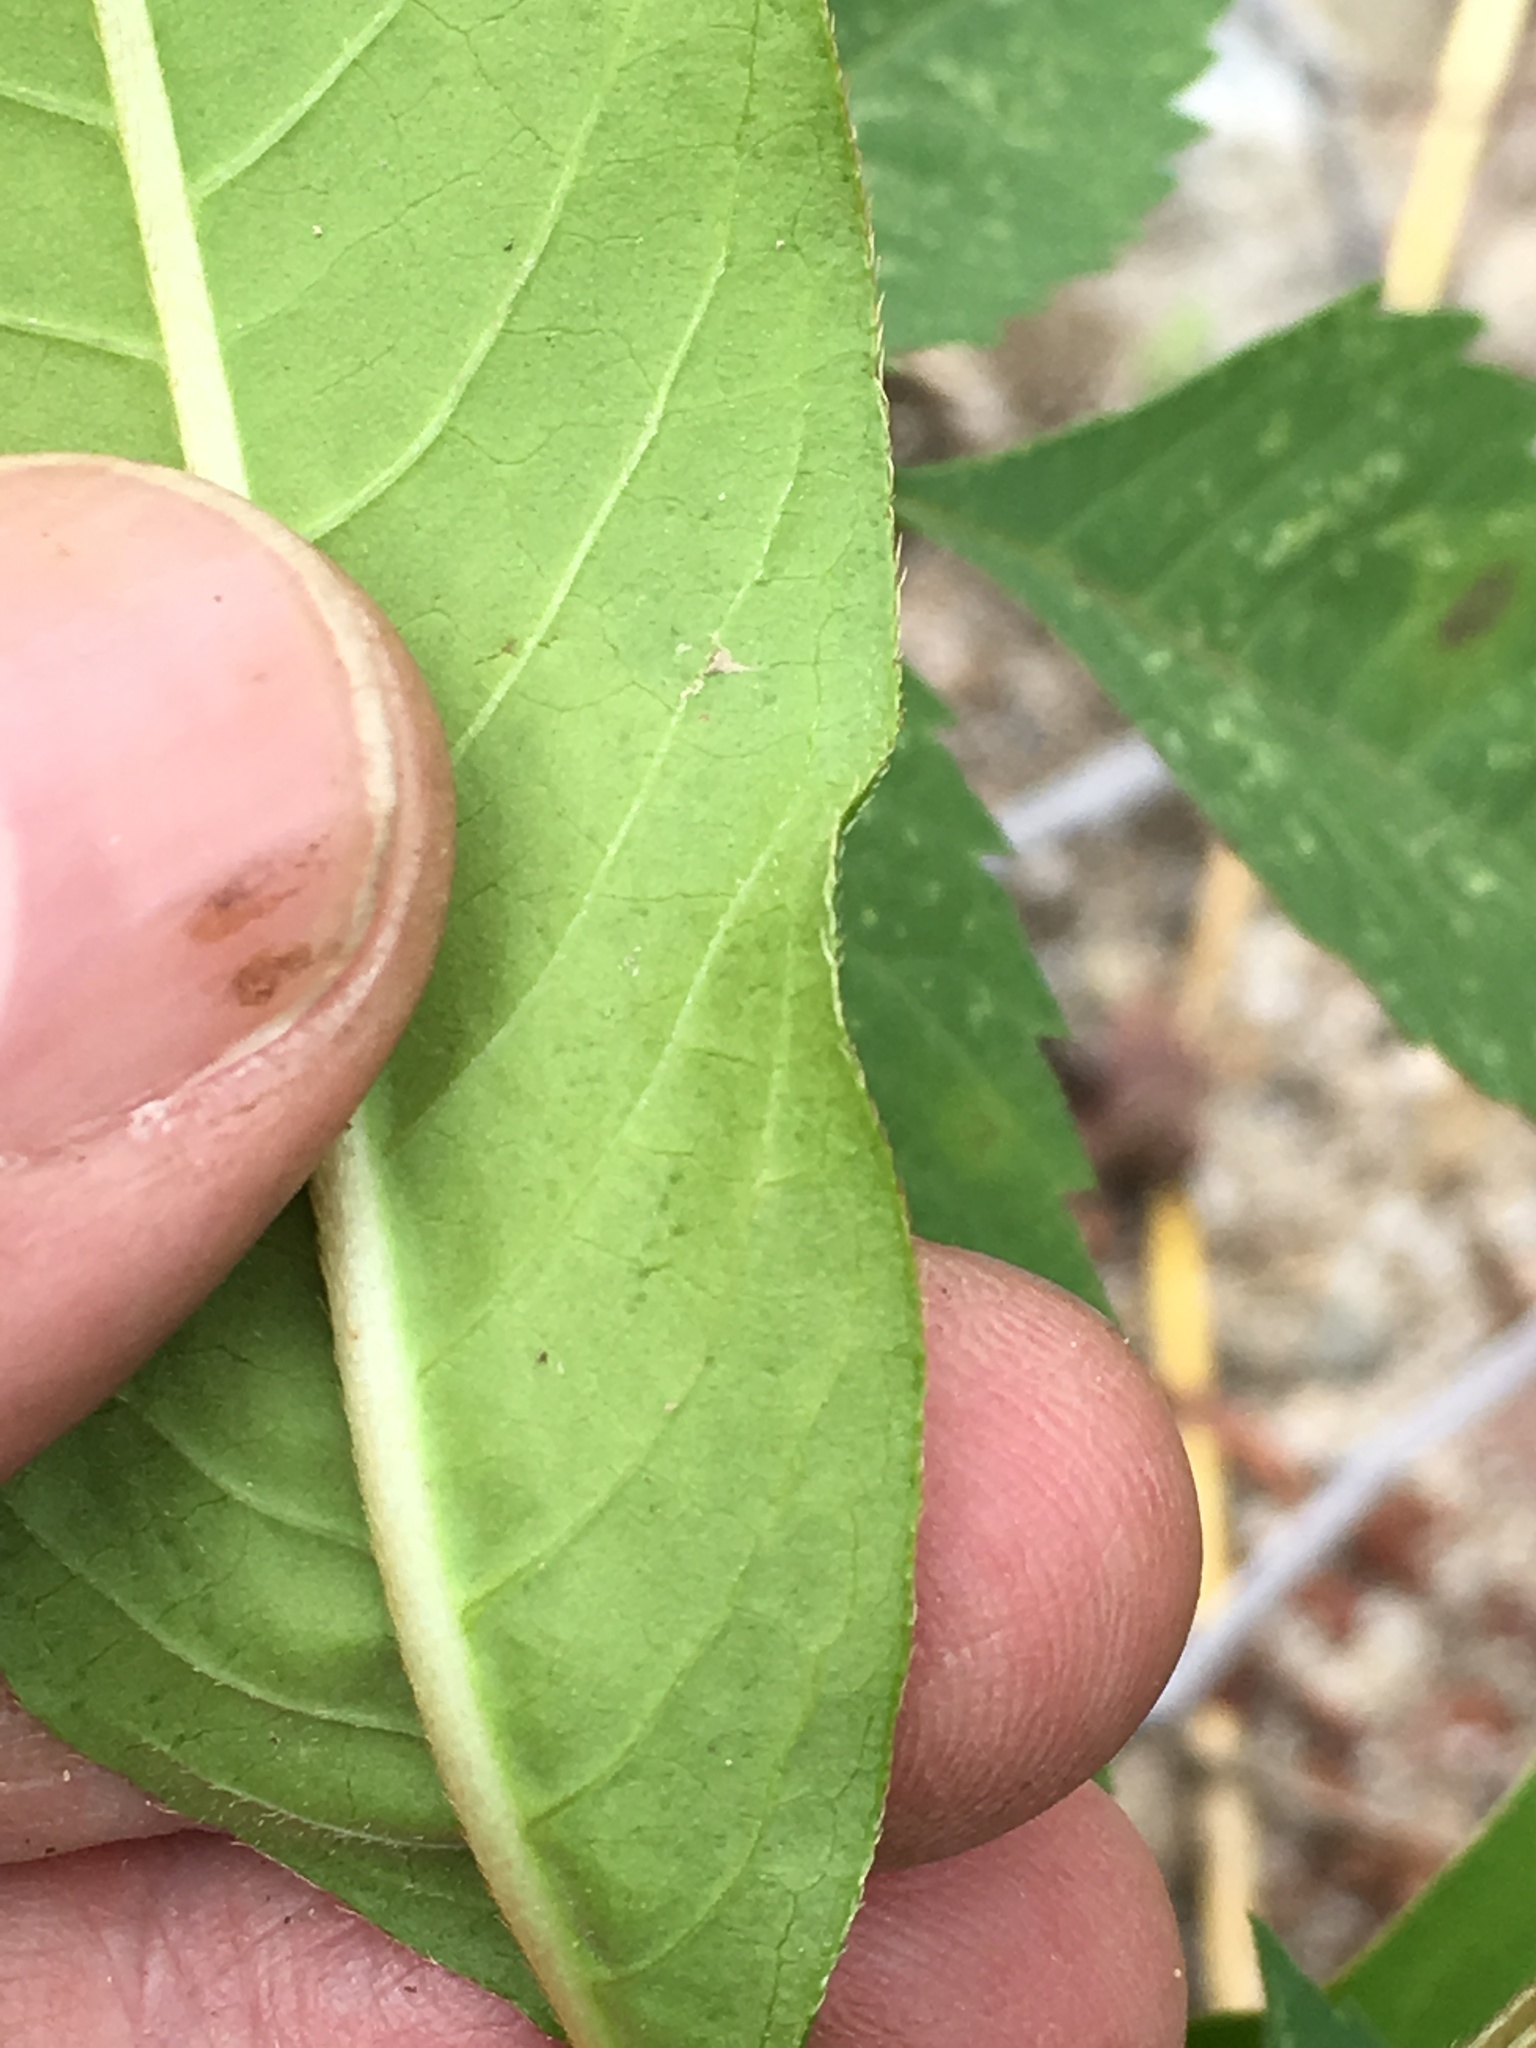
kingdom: Plantae
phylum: Tracheophyta
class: Magnoliopsida
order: Caryophyllales
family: Polygonaceae
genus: Persicaria
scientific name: Persicaria extremiorientalis
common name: Far-eastern smartweed
